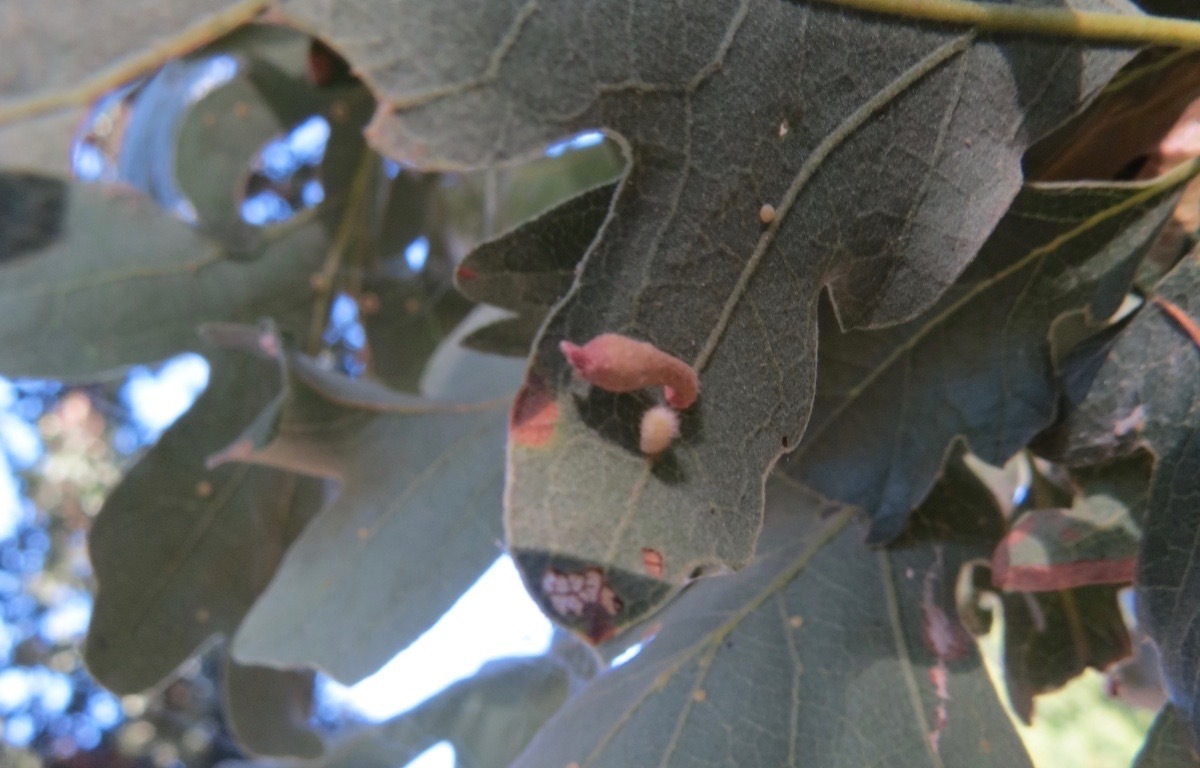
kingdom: Animalia
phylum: Arthropoda
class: Insecta
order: Hymenoptera
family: Cynipidae
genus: Atrusca
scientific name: Atrusca
